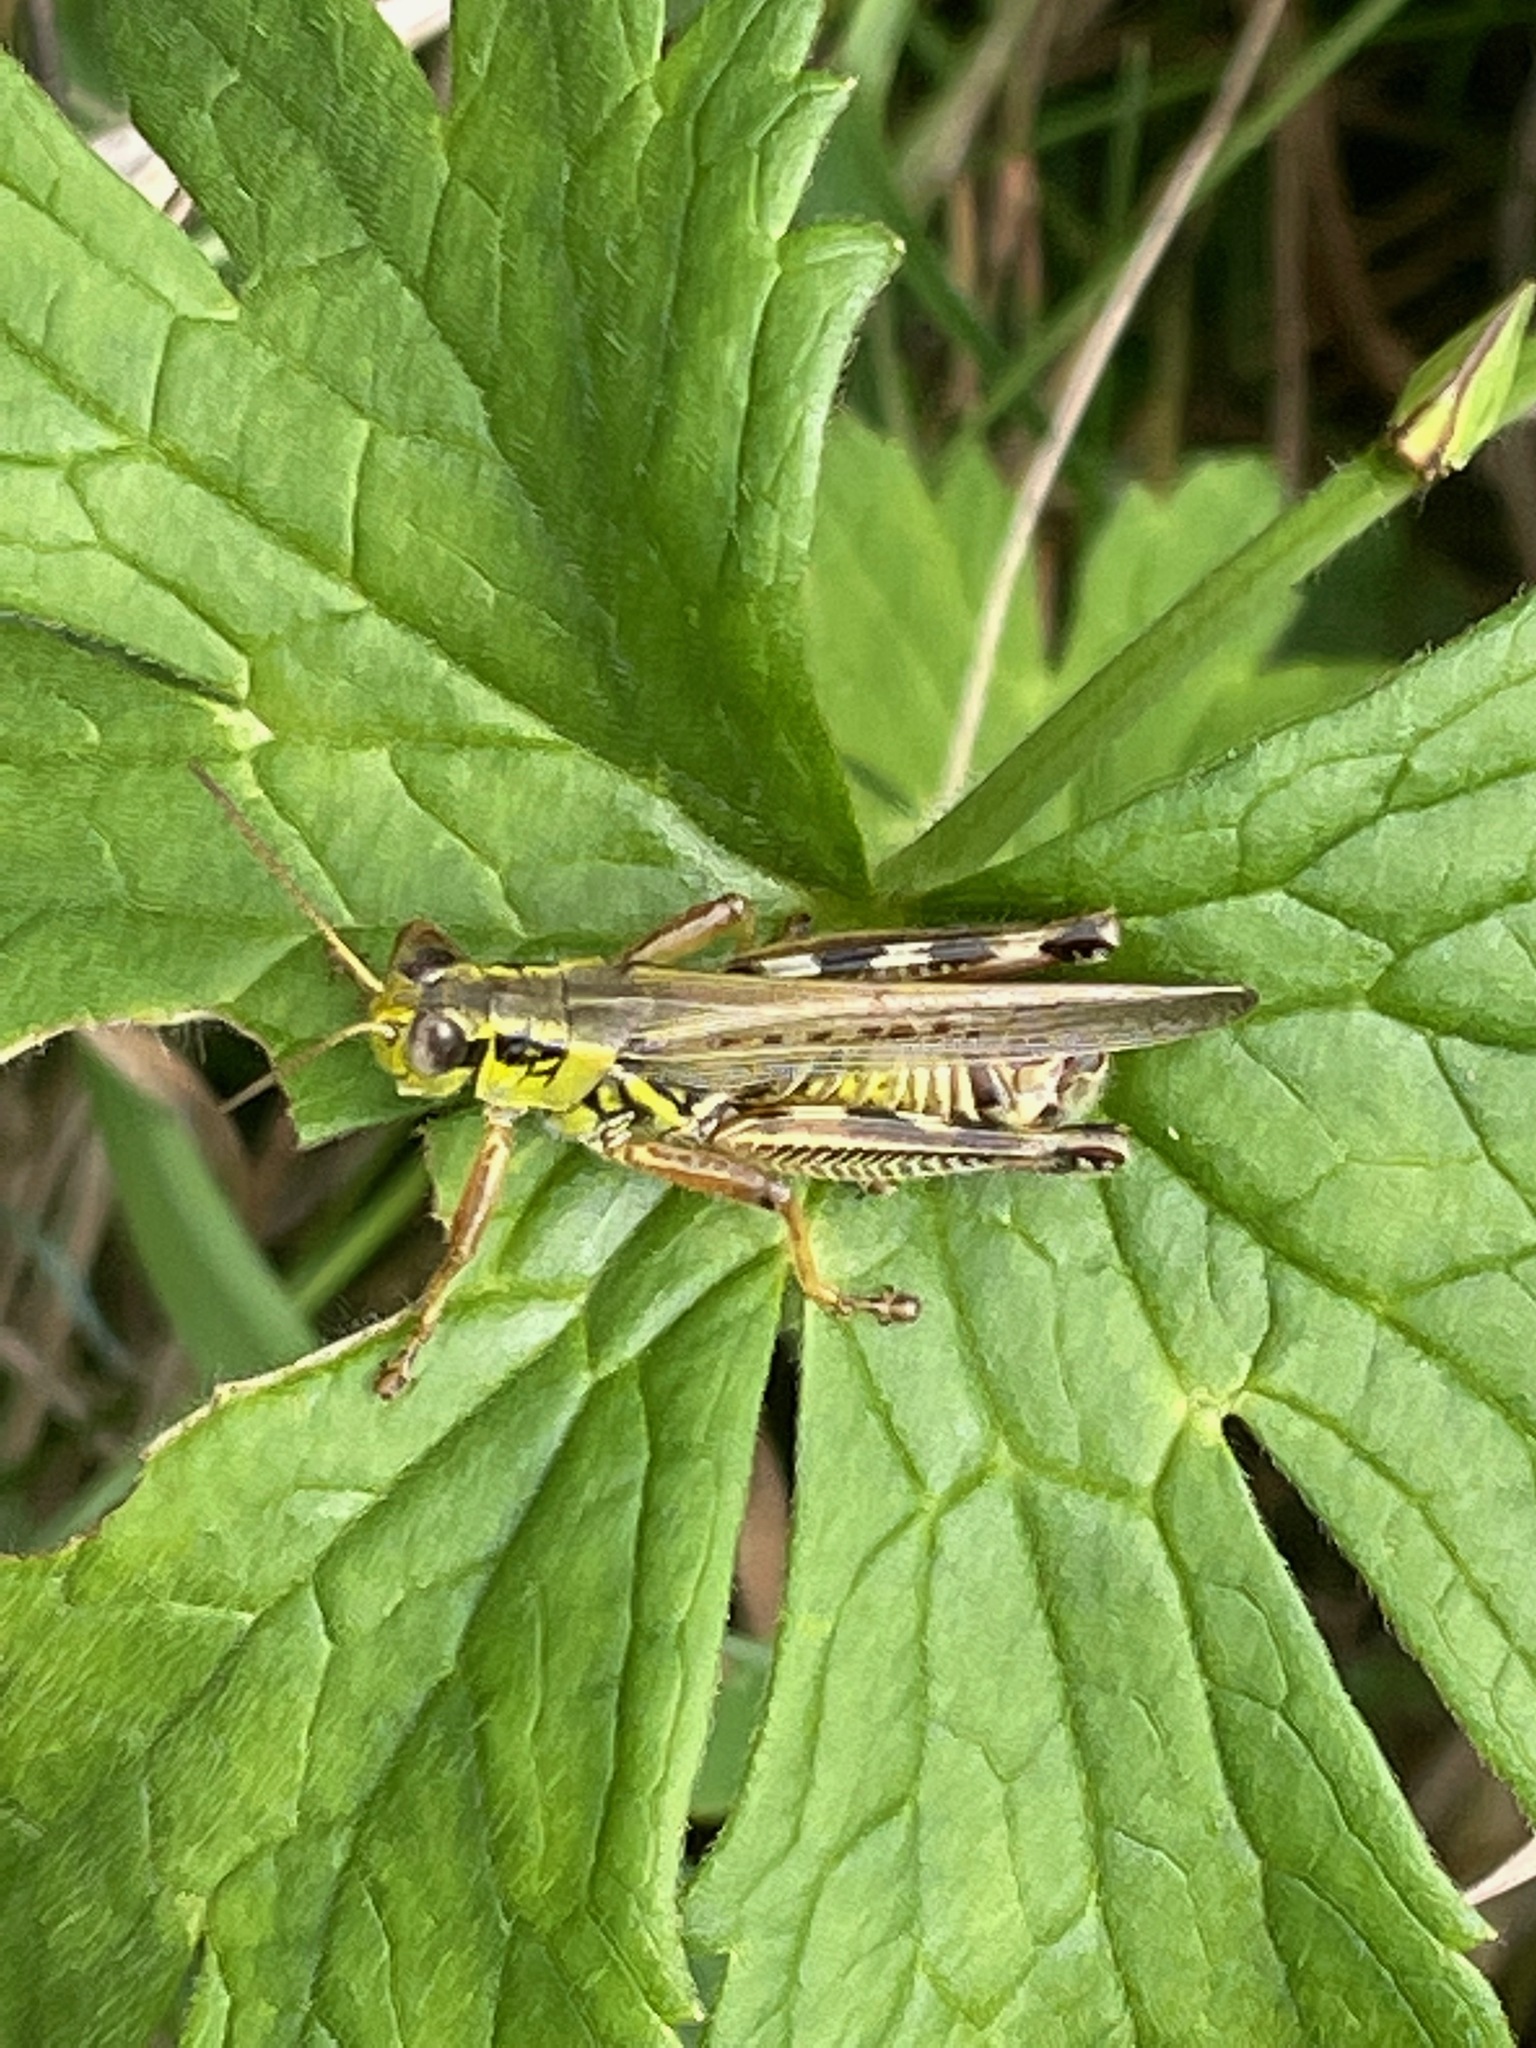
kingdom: Animalia
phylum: Arthropoda
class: Insecta
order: Orthoptera
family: Acrididae
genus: Melanoplus
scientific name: Melanoplus femurrubrum
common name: Red-legged grasshopper
